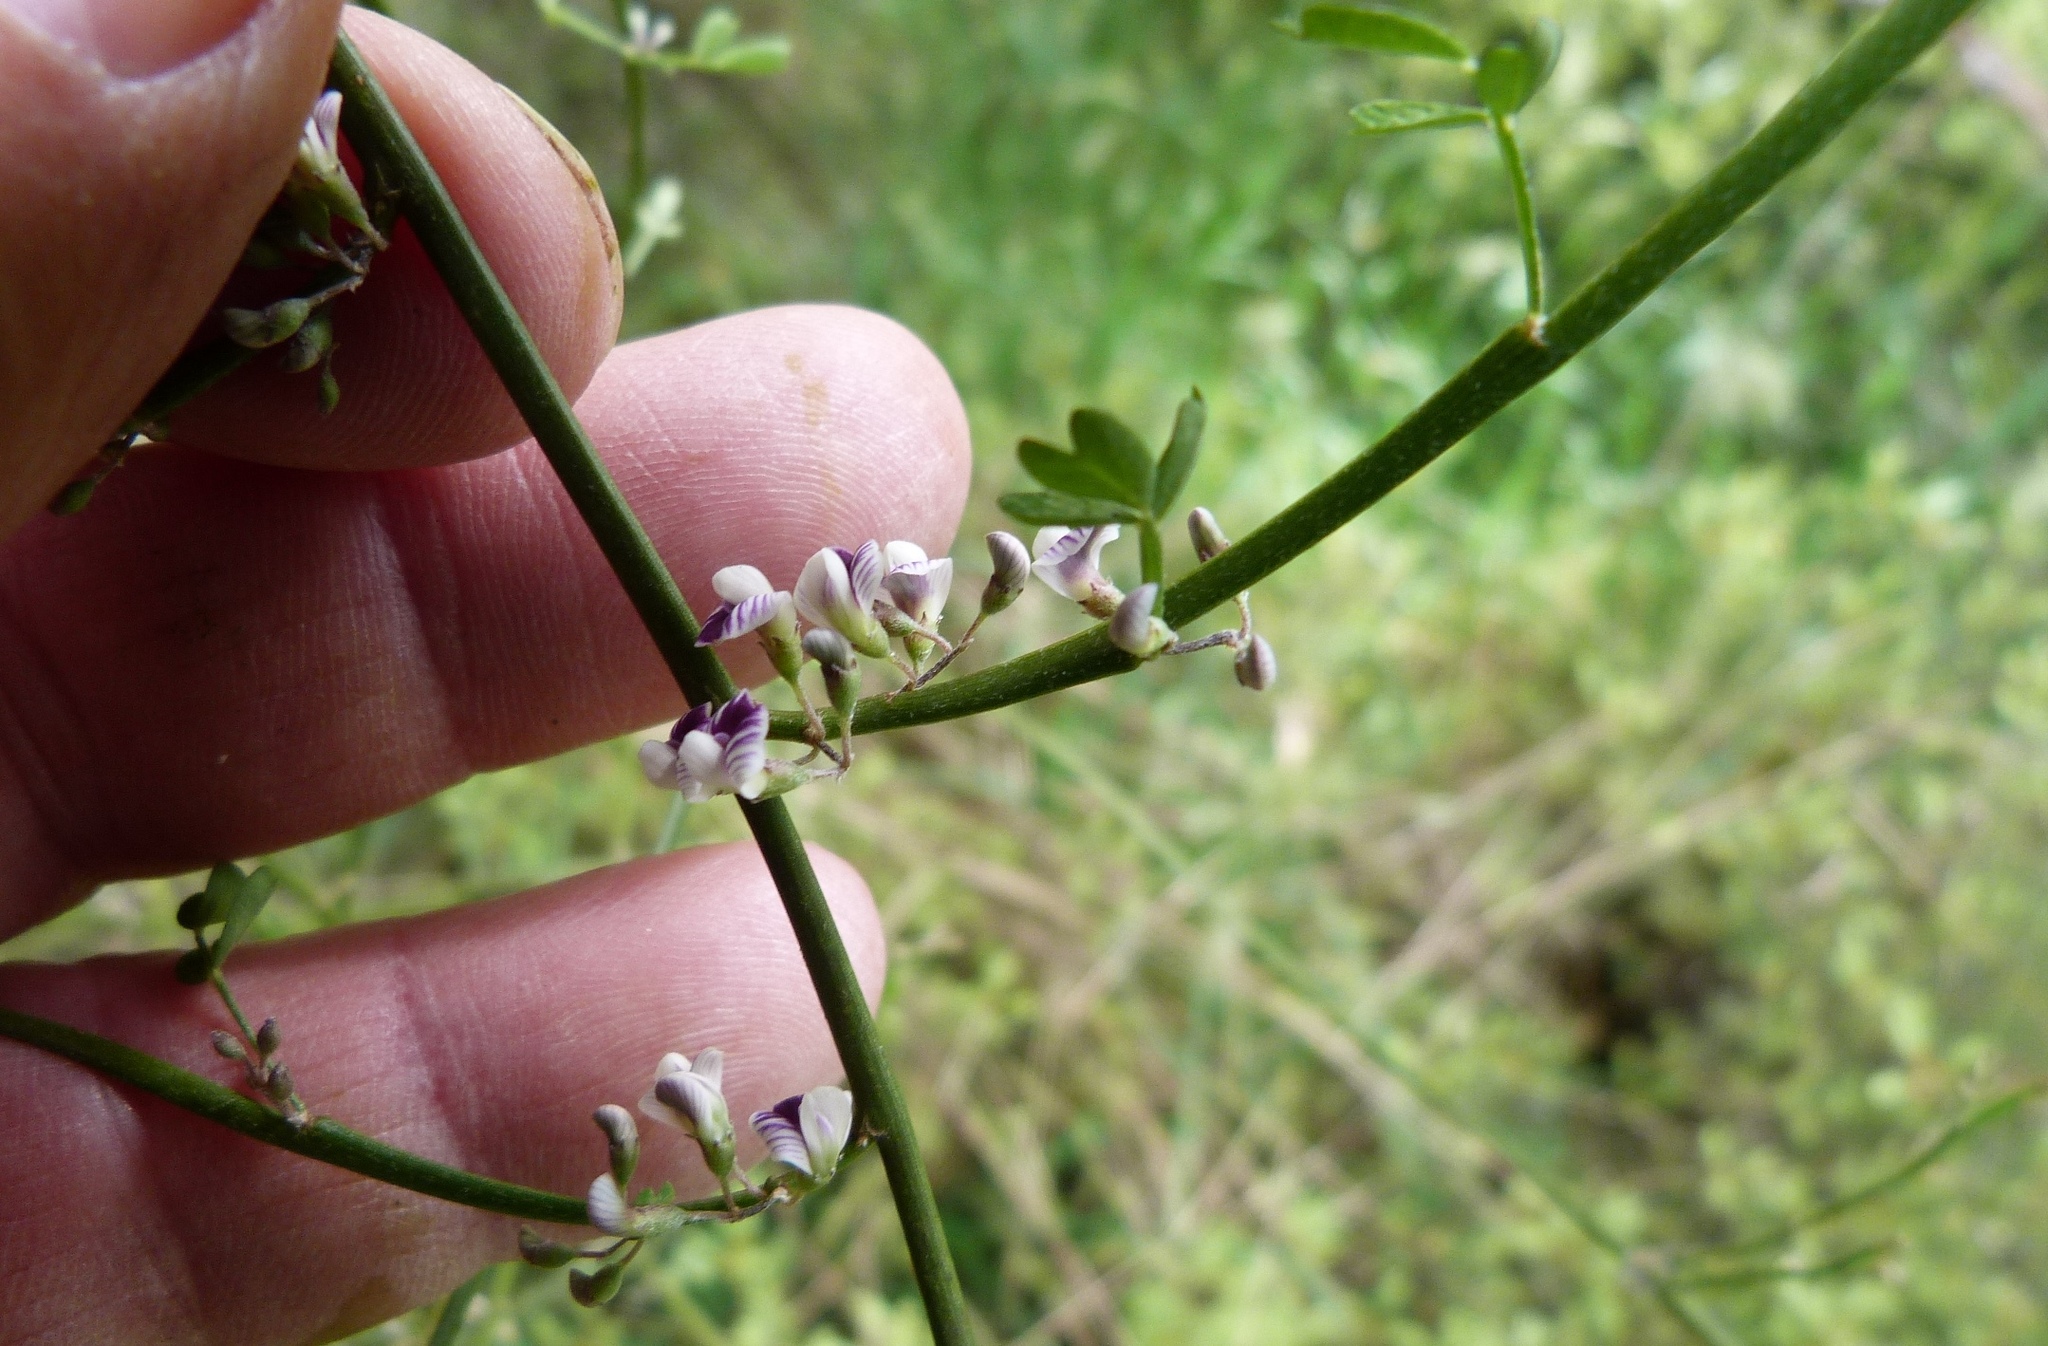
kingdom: Plantae
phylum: Tracheophyta
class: Magnoliopsida
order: Fabales
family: Fabaceae
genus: Carmichaelia
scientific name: Carmichaelia australis
